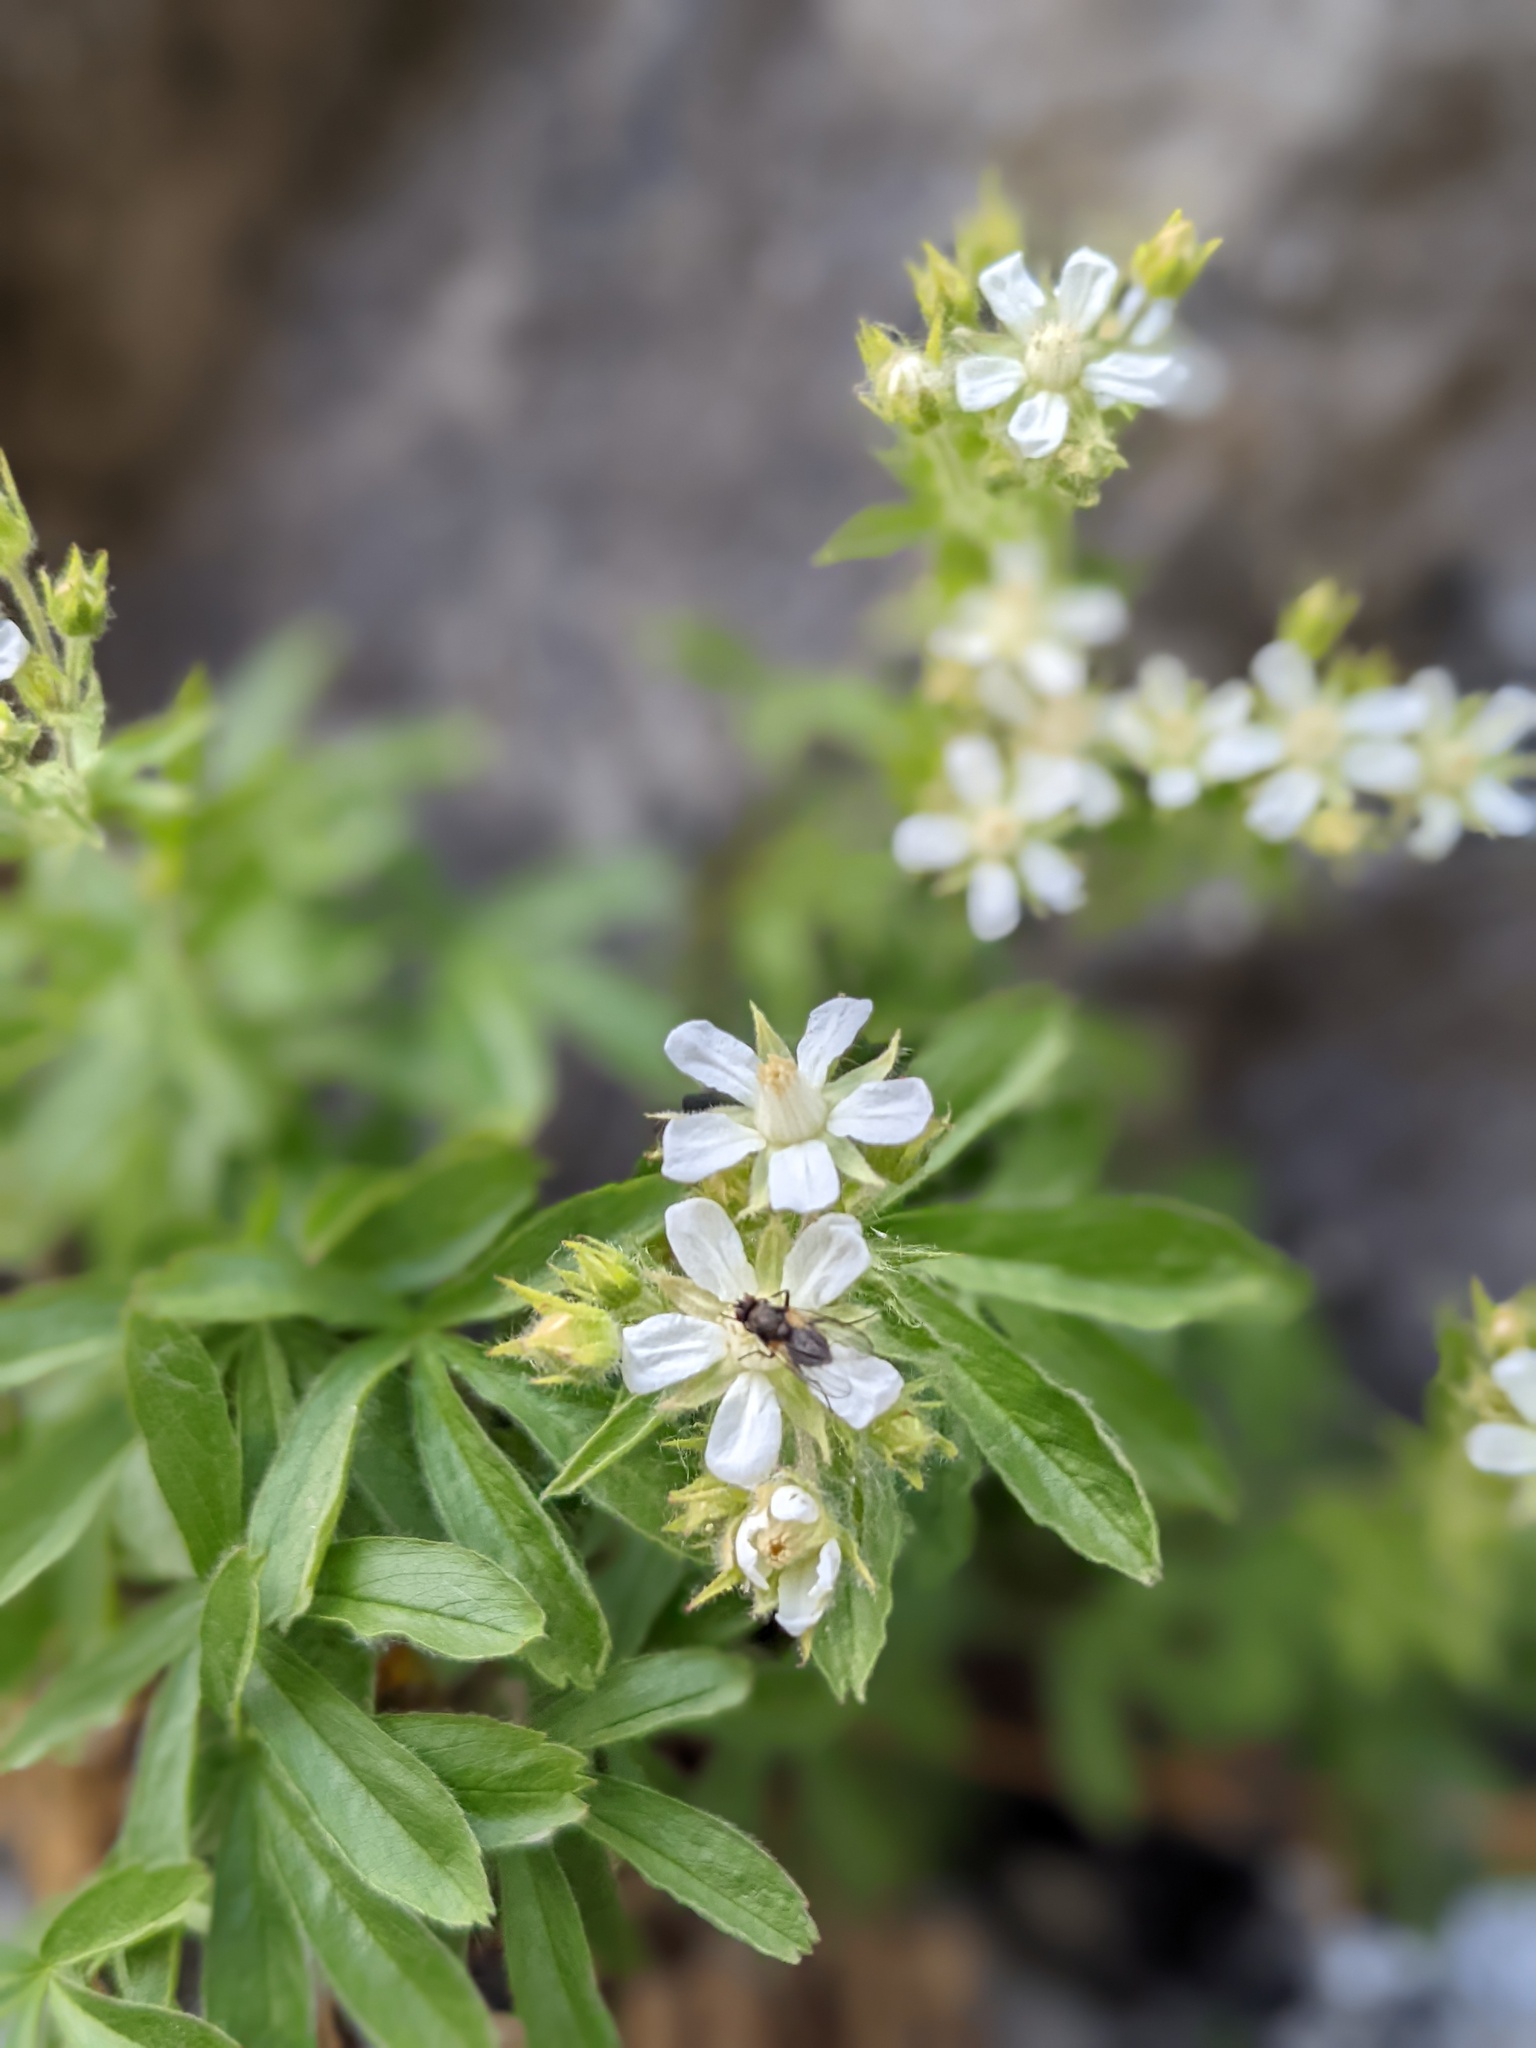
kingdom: Plantae
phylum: Tracheophyta
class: Magnoliopsida
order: Rosales
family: Rosaceae
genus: Potentilla
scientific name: Potentilla caulescens
